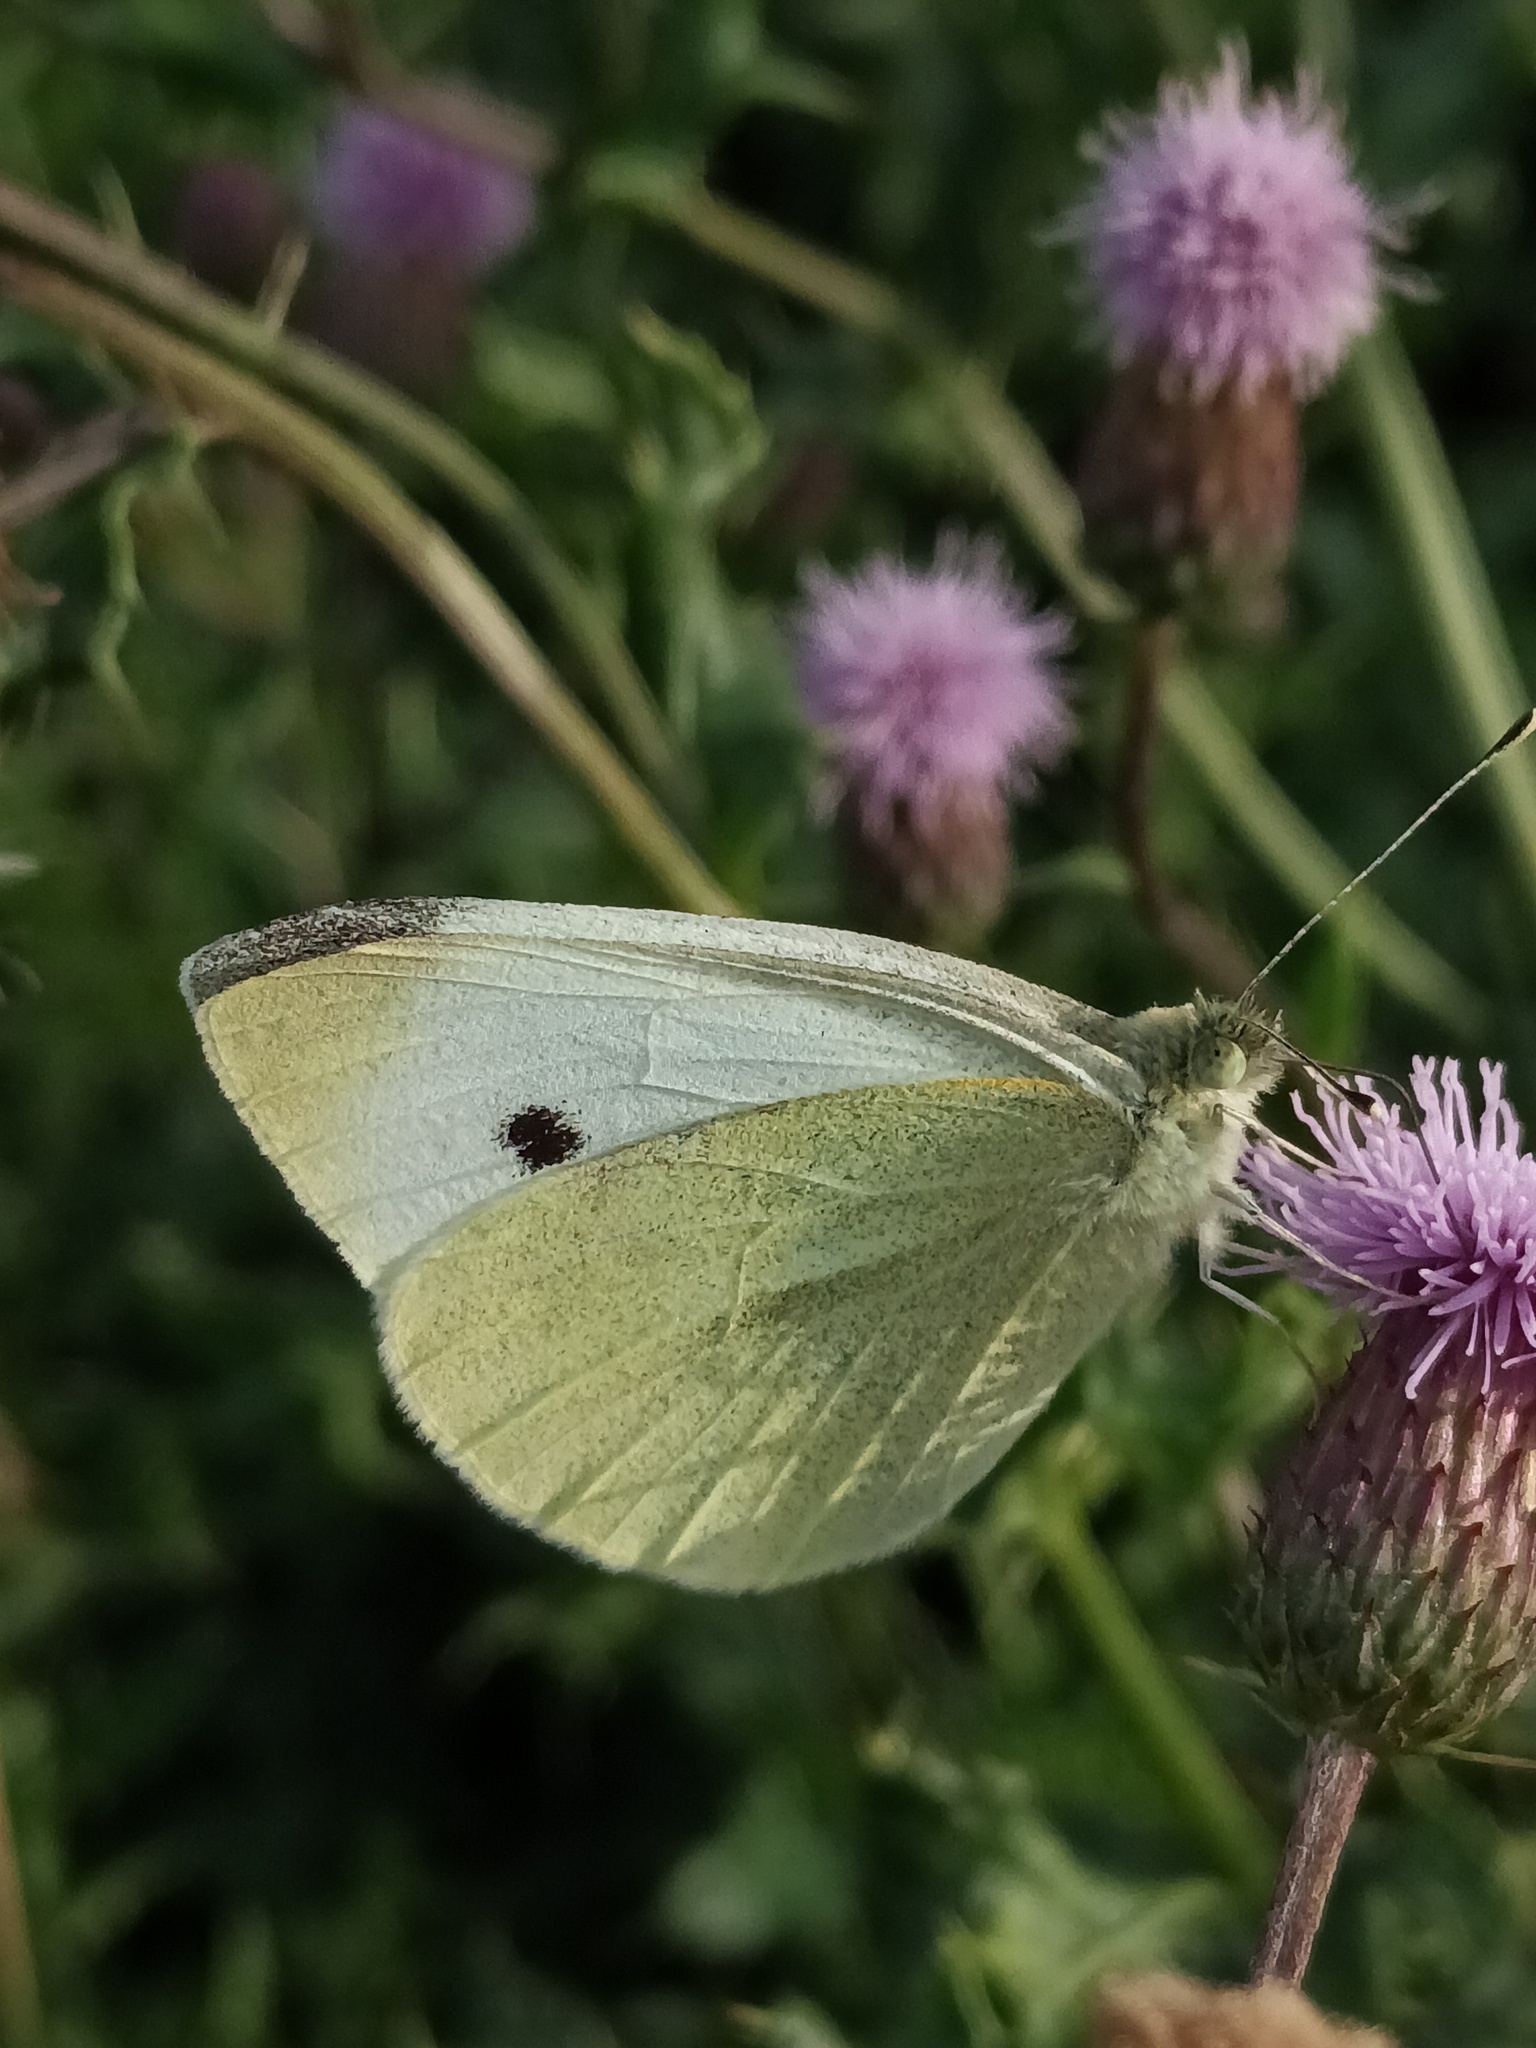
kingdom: Animalia
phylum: Arthropoda
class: Insecta
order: Lepidoptera
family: Pieridae
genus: Pieris
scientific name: Pieris rapae
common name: Small white
